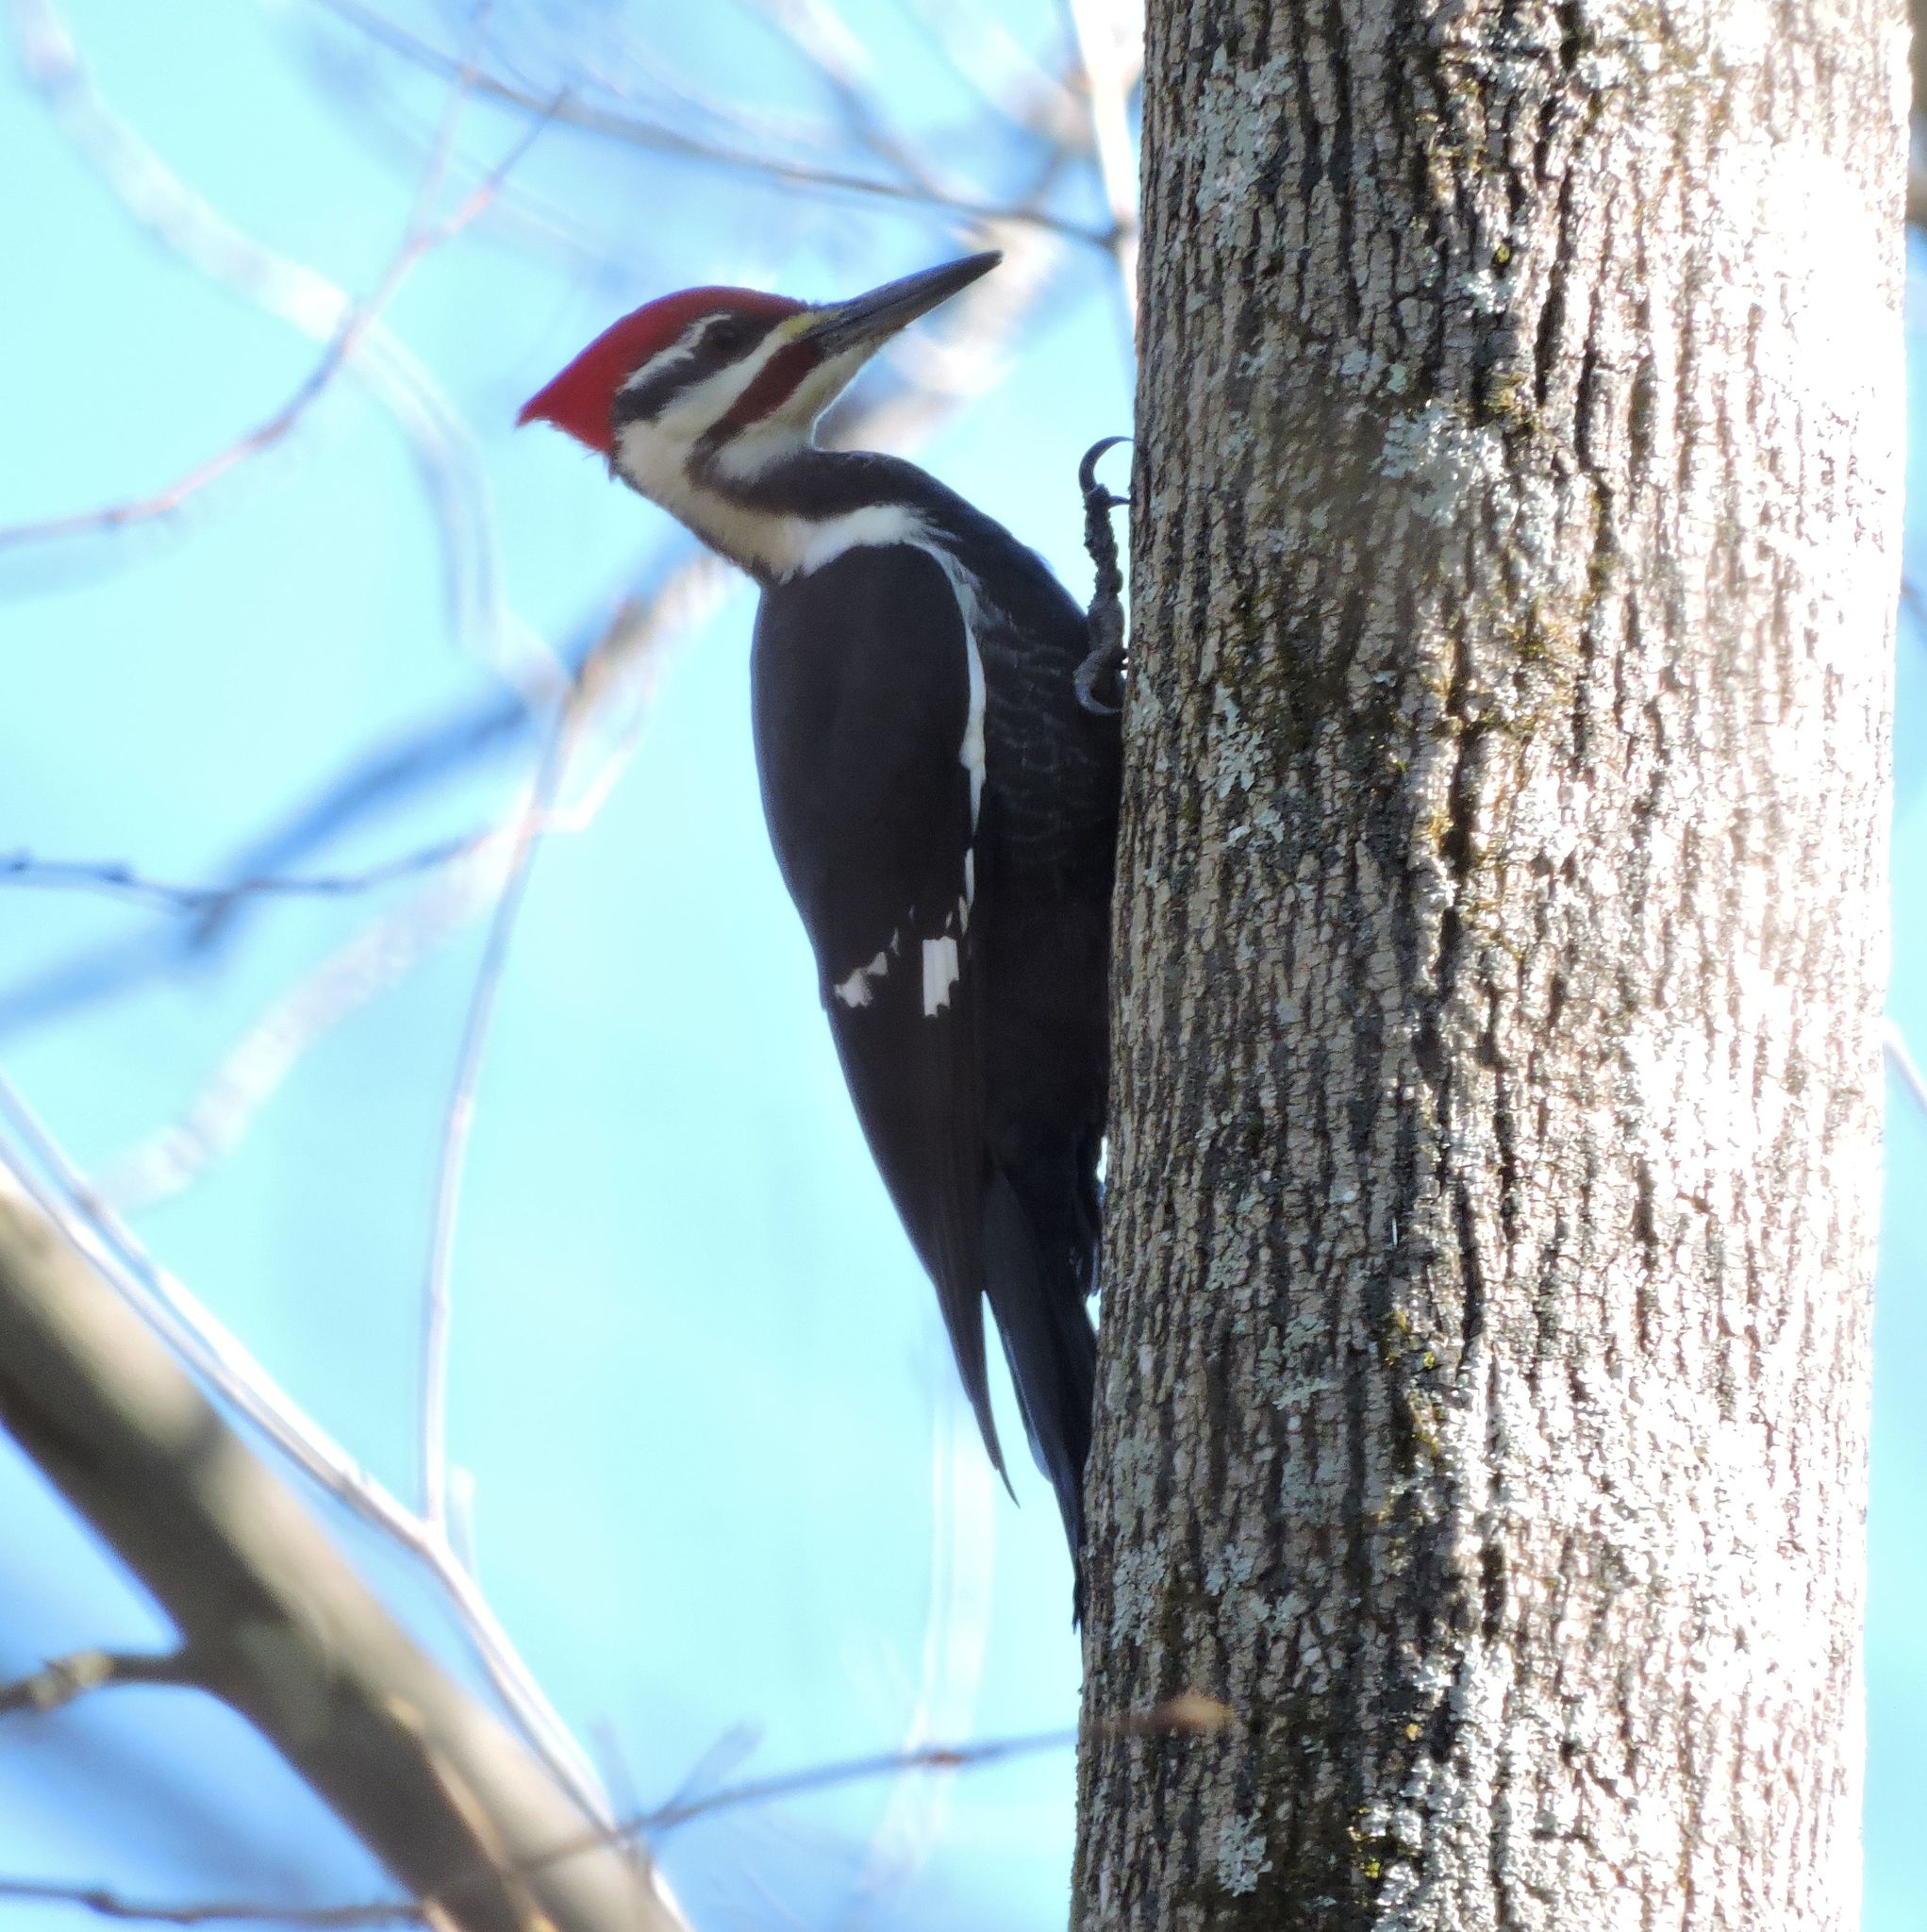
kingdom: Animalia
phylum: Chordata
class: Aves
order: Piciformes
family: Picidae
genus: Dryocopus
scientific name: Dryocopus pileatus
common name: Pileated woodpecker
